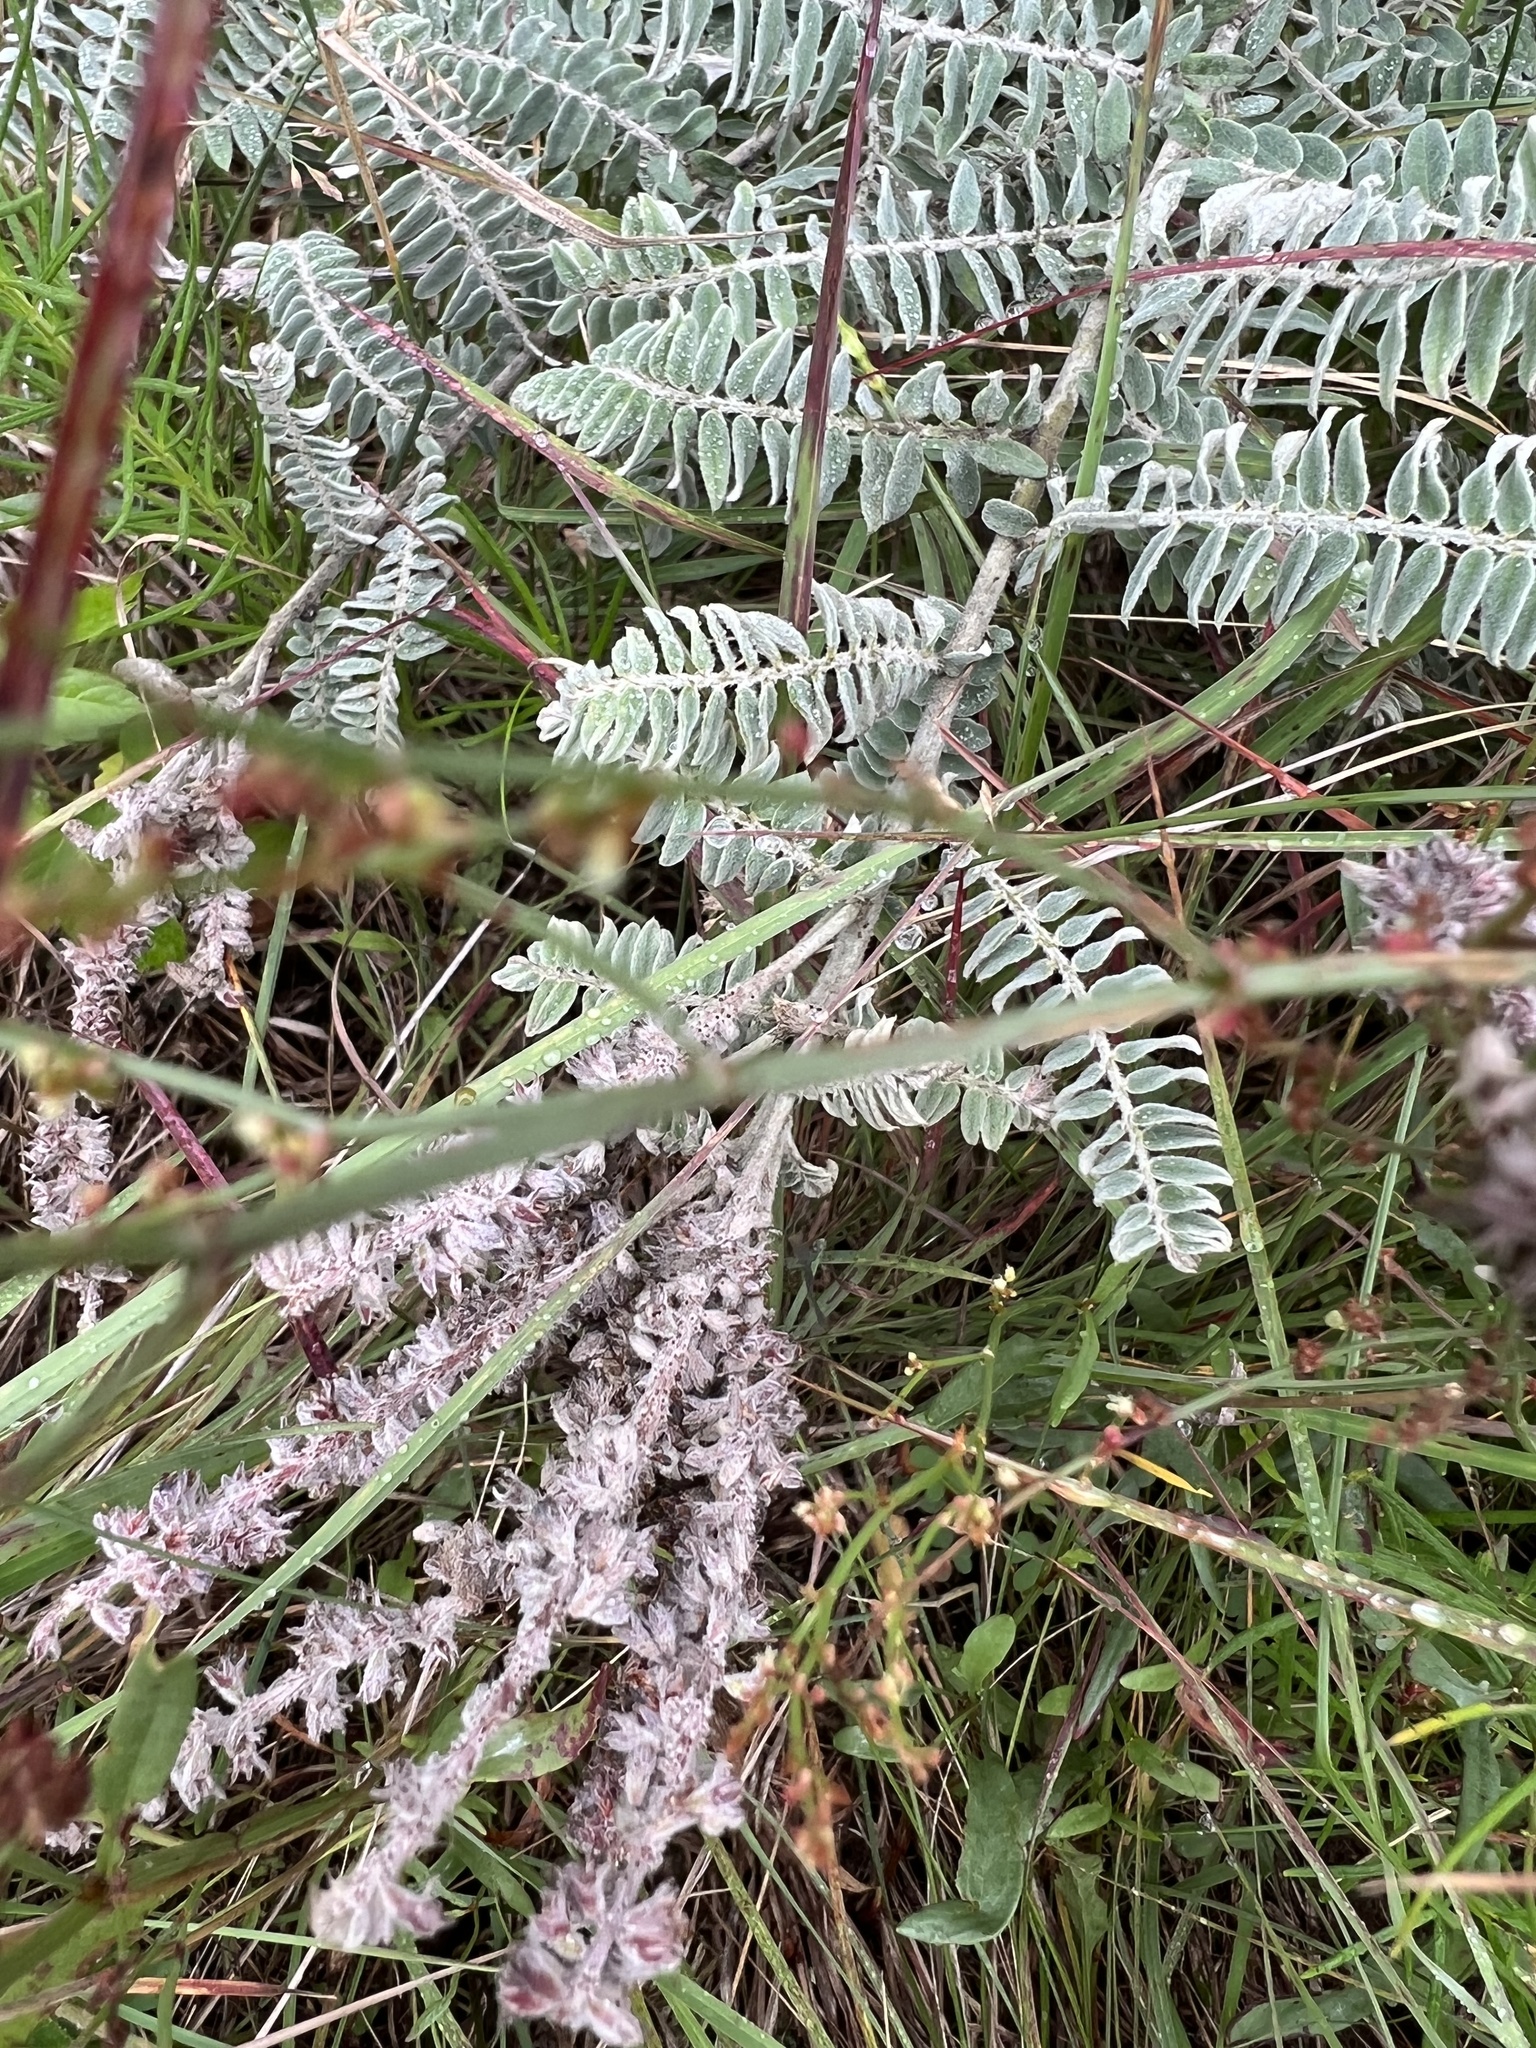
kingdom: Plantae
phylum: Tracheophyta
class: Magnoliopsida
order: Fabales
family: Fabaceae
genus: Amorpha
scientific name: Amorpha canescens
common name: Leadplant
